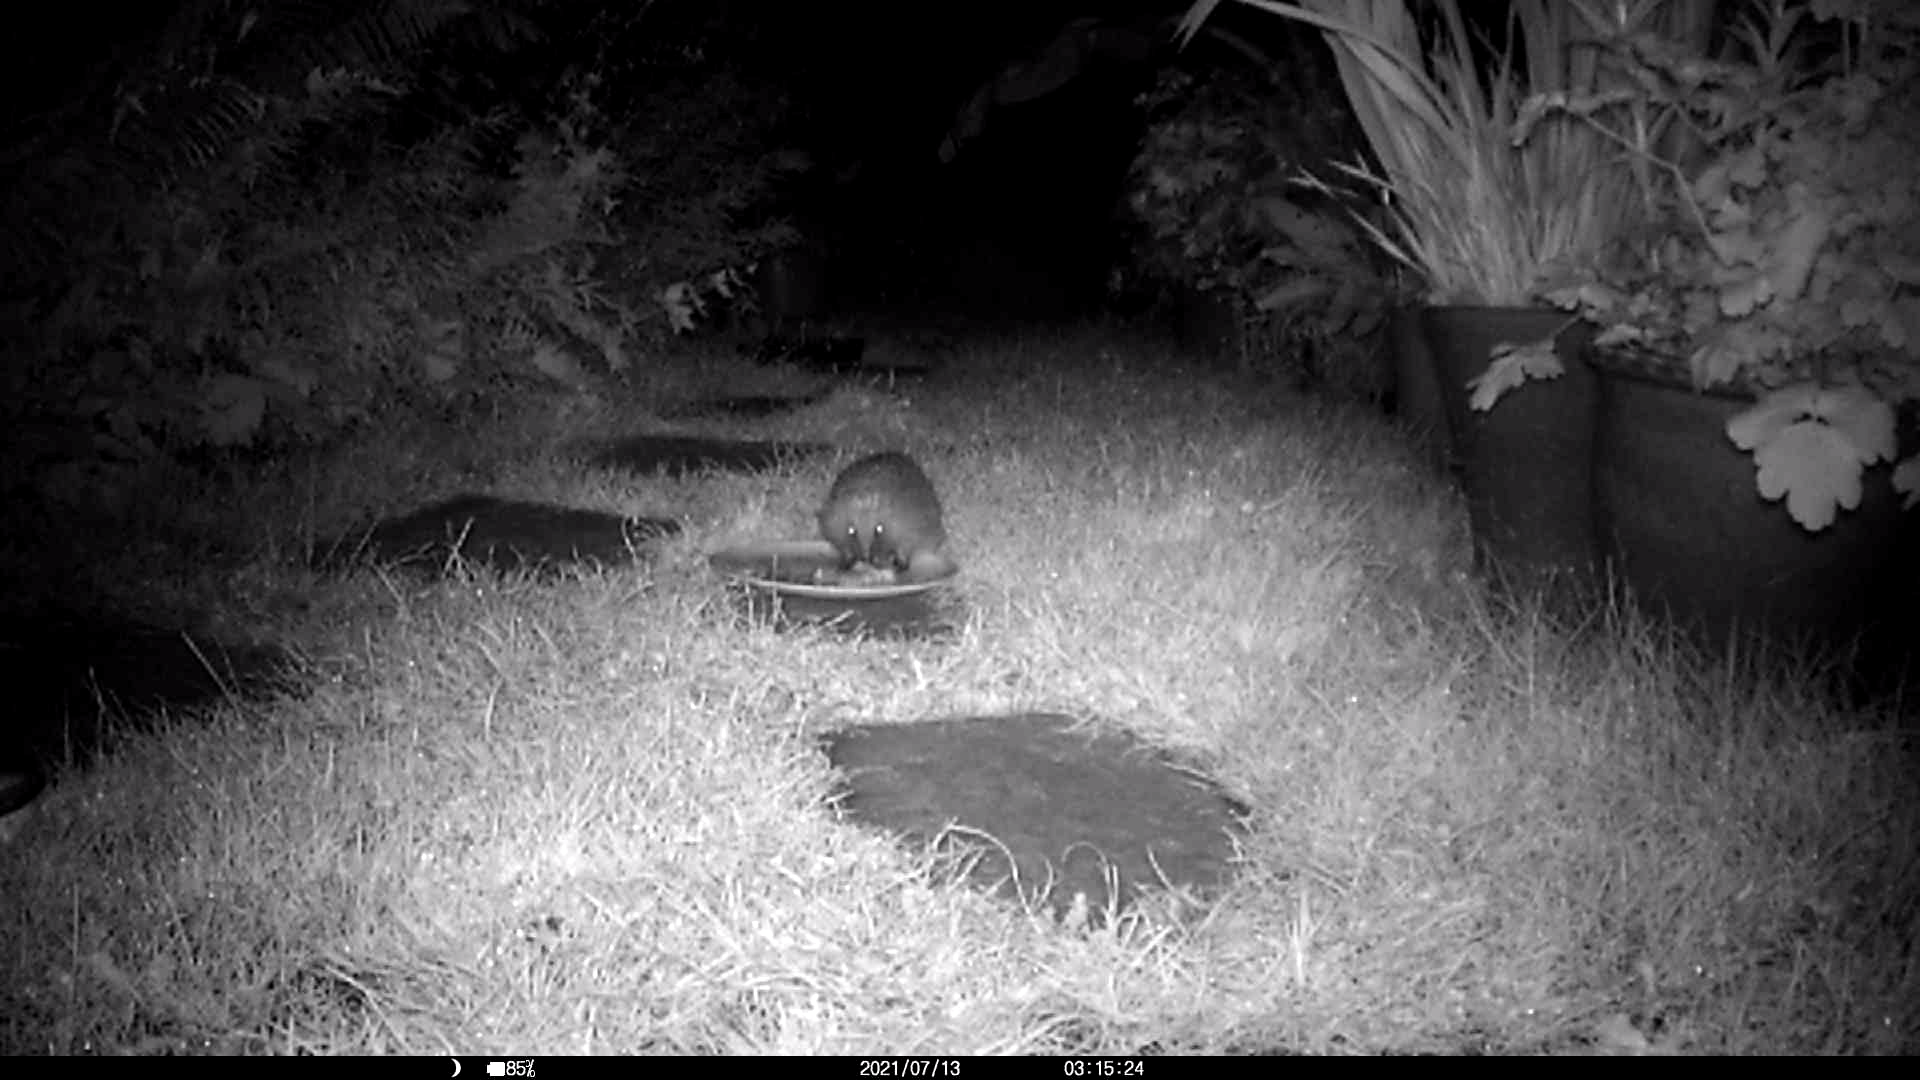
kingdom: Animalia
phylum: Chordata
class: Mammalia
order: Erinaceomorpha
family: Erinaceidae
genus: Erinaceus
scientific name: Erinaceus europaeus
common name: West european hedgehog
